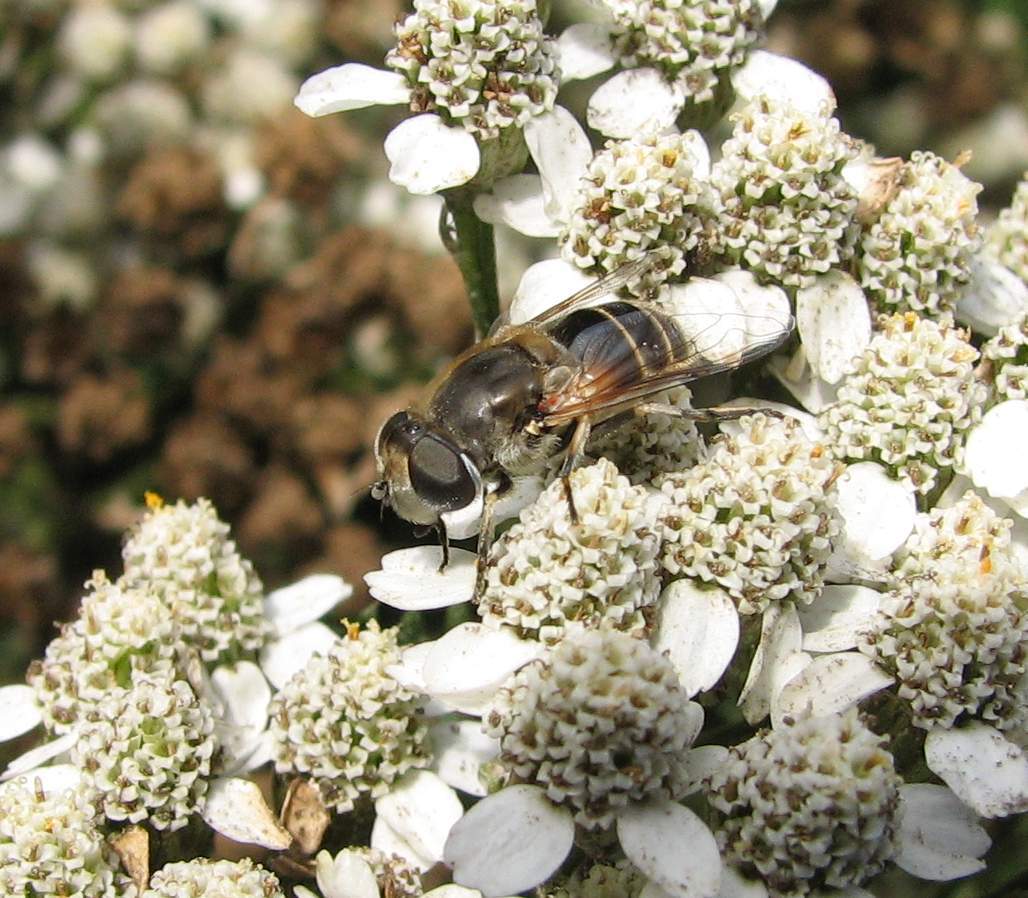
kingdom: Animalia
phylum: Arthropoda
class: Insecta
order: Diptera
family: Syrphidae
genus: Eristalis
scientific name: Eristalis arbustorum
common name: Hover fly
